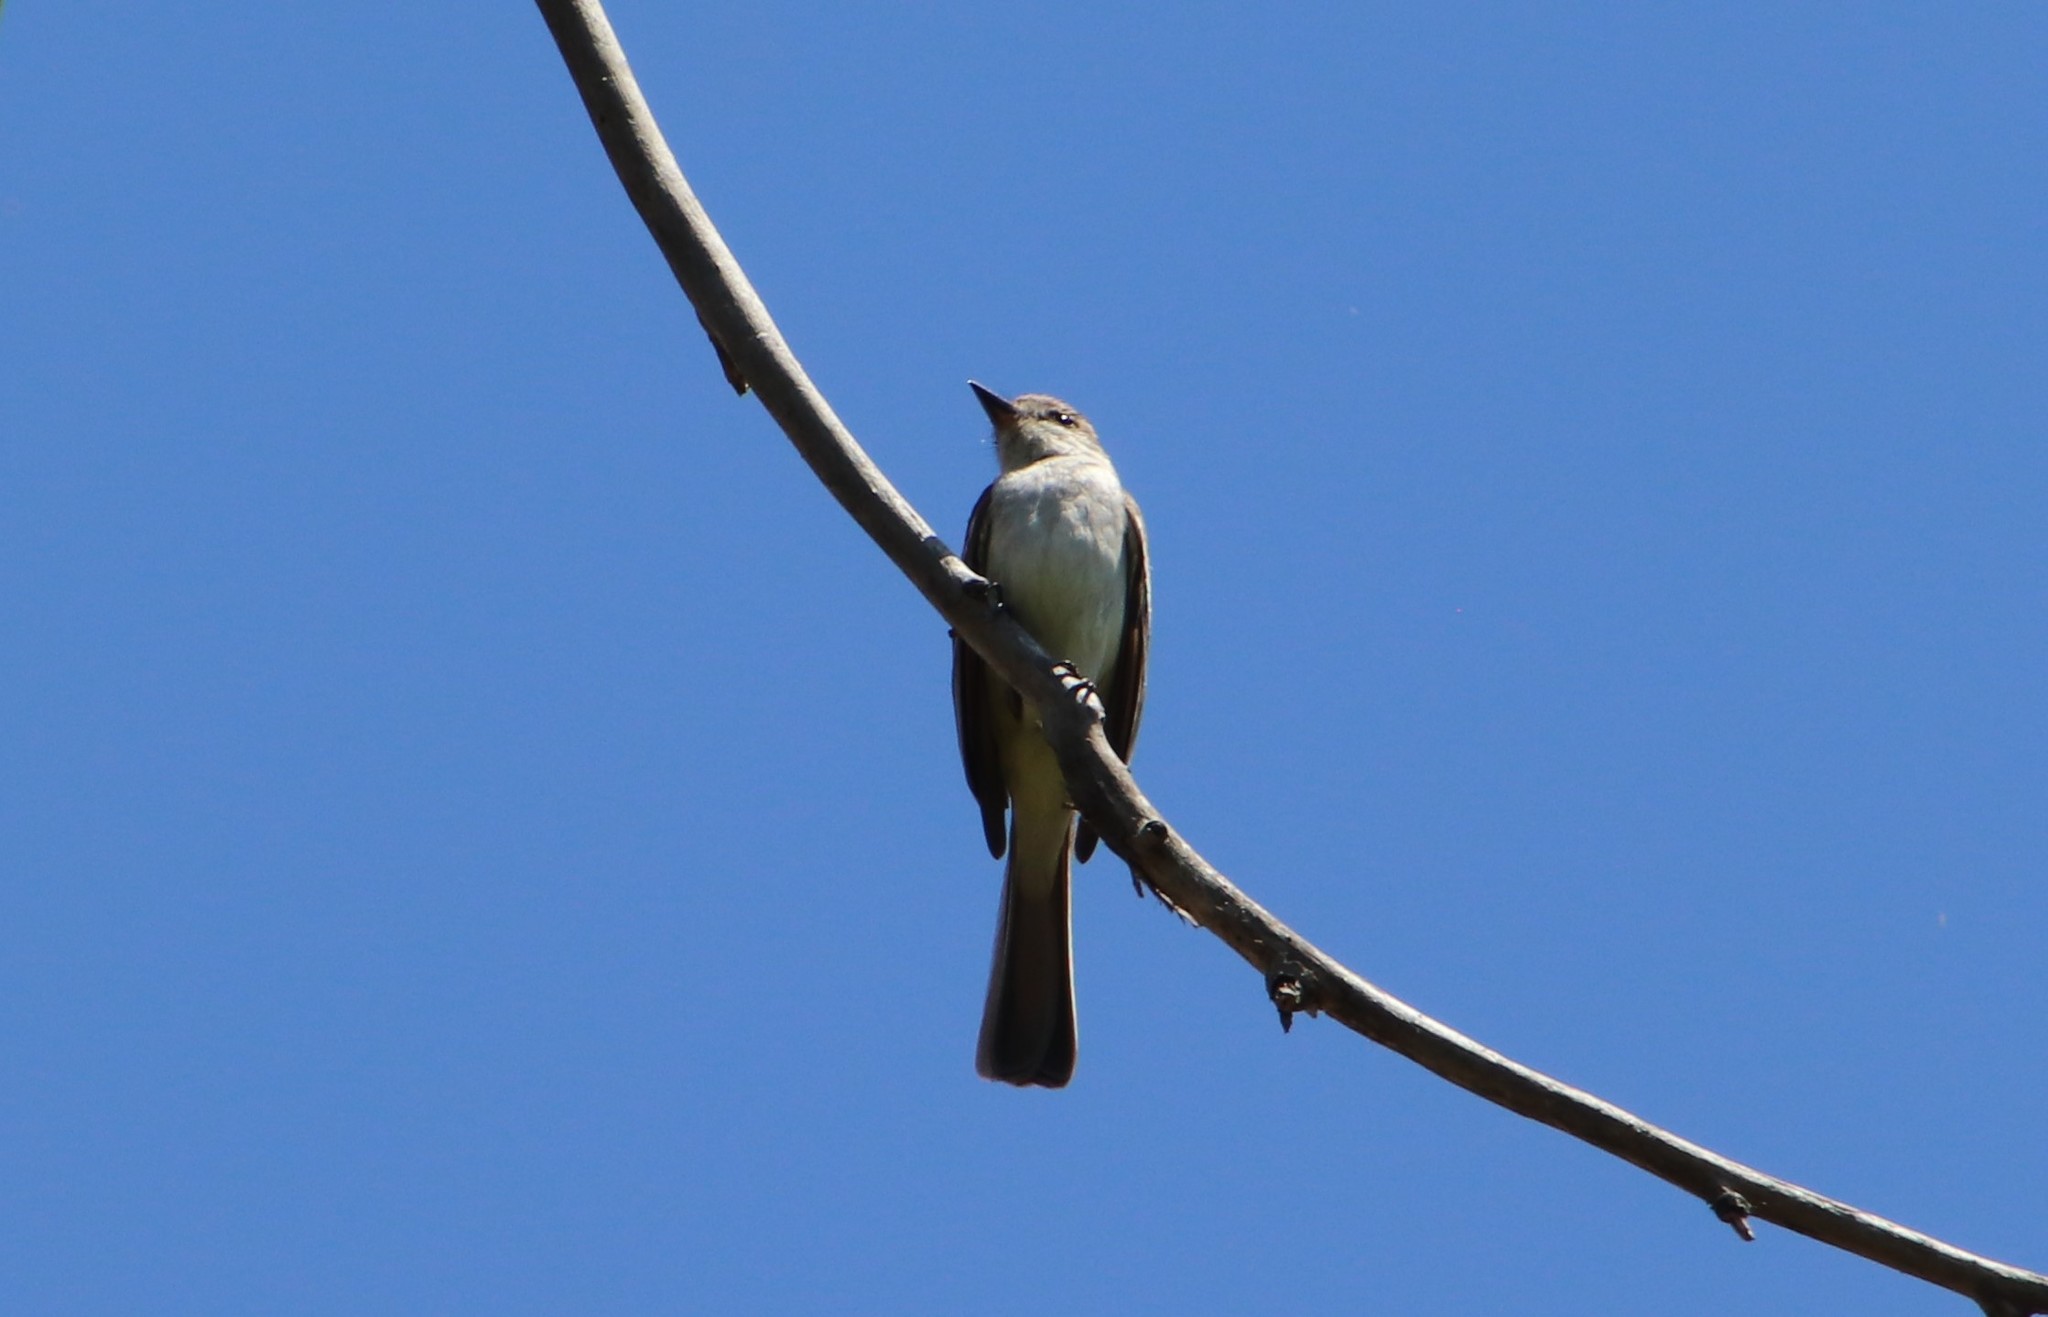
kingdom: Animalia
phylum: Chordata
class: Aves
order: Passeriformes
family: Tyrannidae
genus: Myiarchus
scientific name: Myiarchus cinerascens
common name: Ash-throated flycatcher
